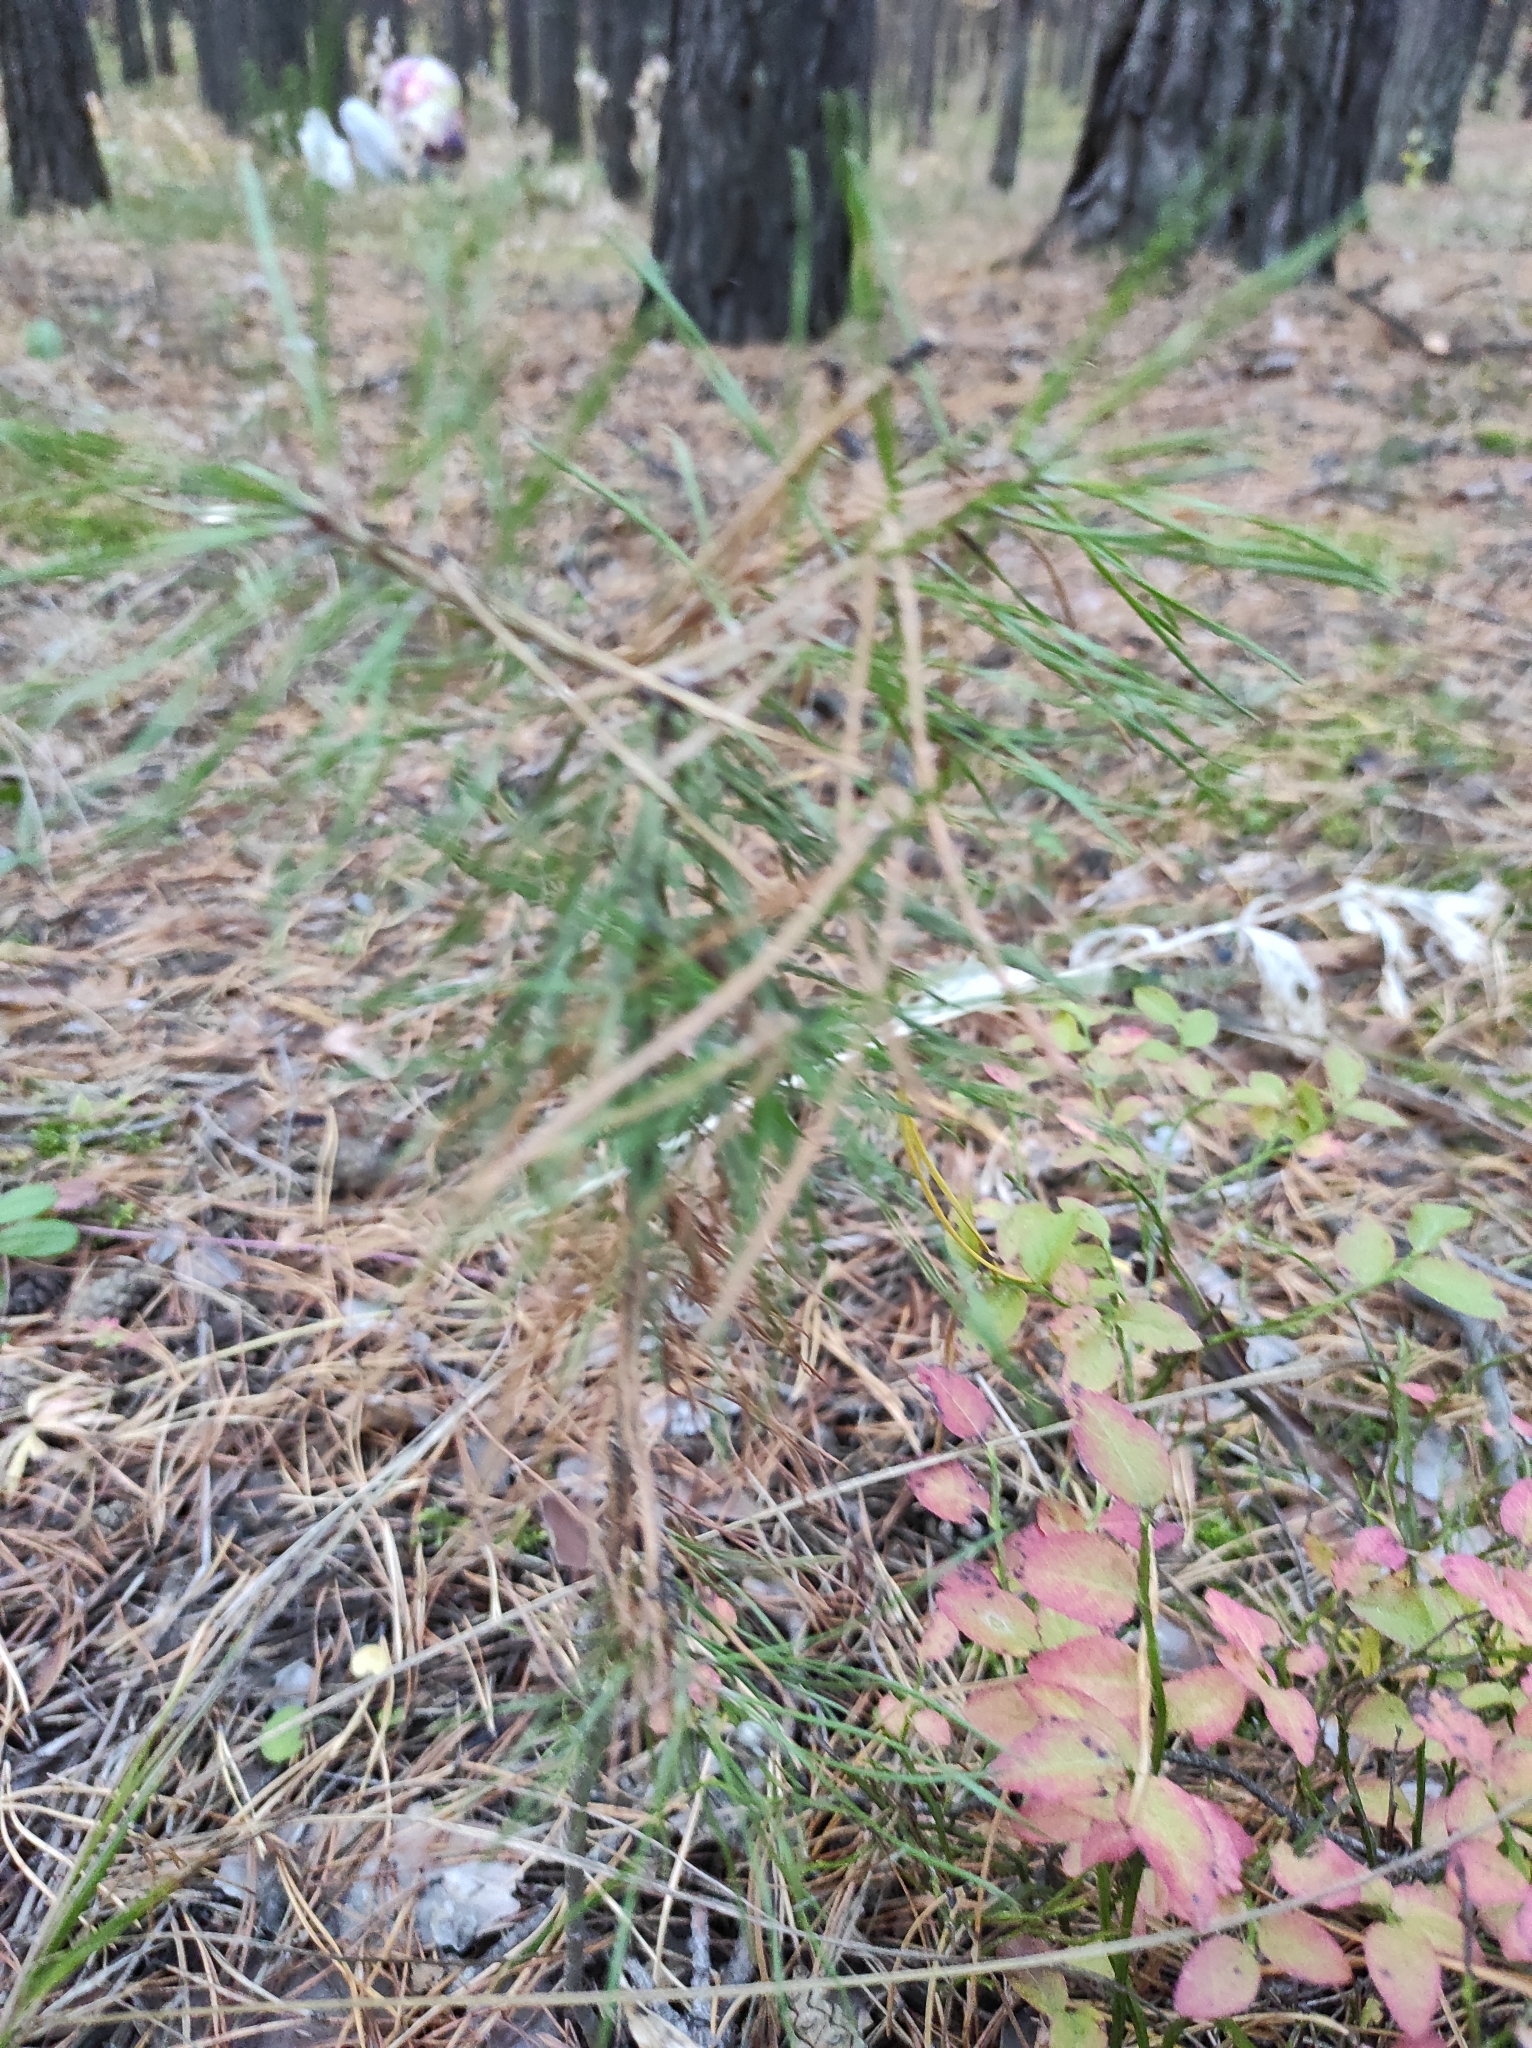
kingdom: Plantae
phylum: Tracheophyta
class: Pinopsida
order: Pinales
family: Pinaceae
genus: Pinus
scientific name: Pinus sylvestris
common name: Scots pine
